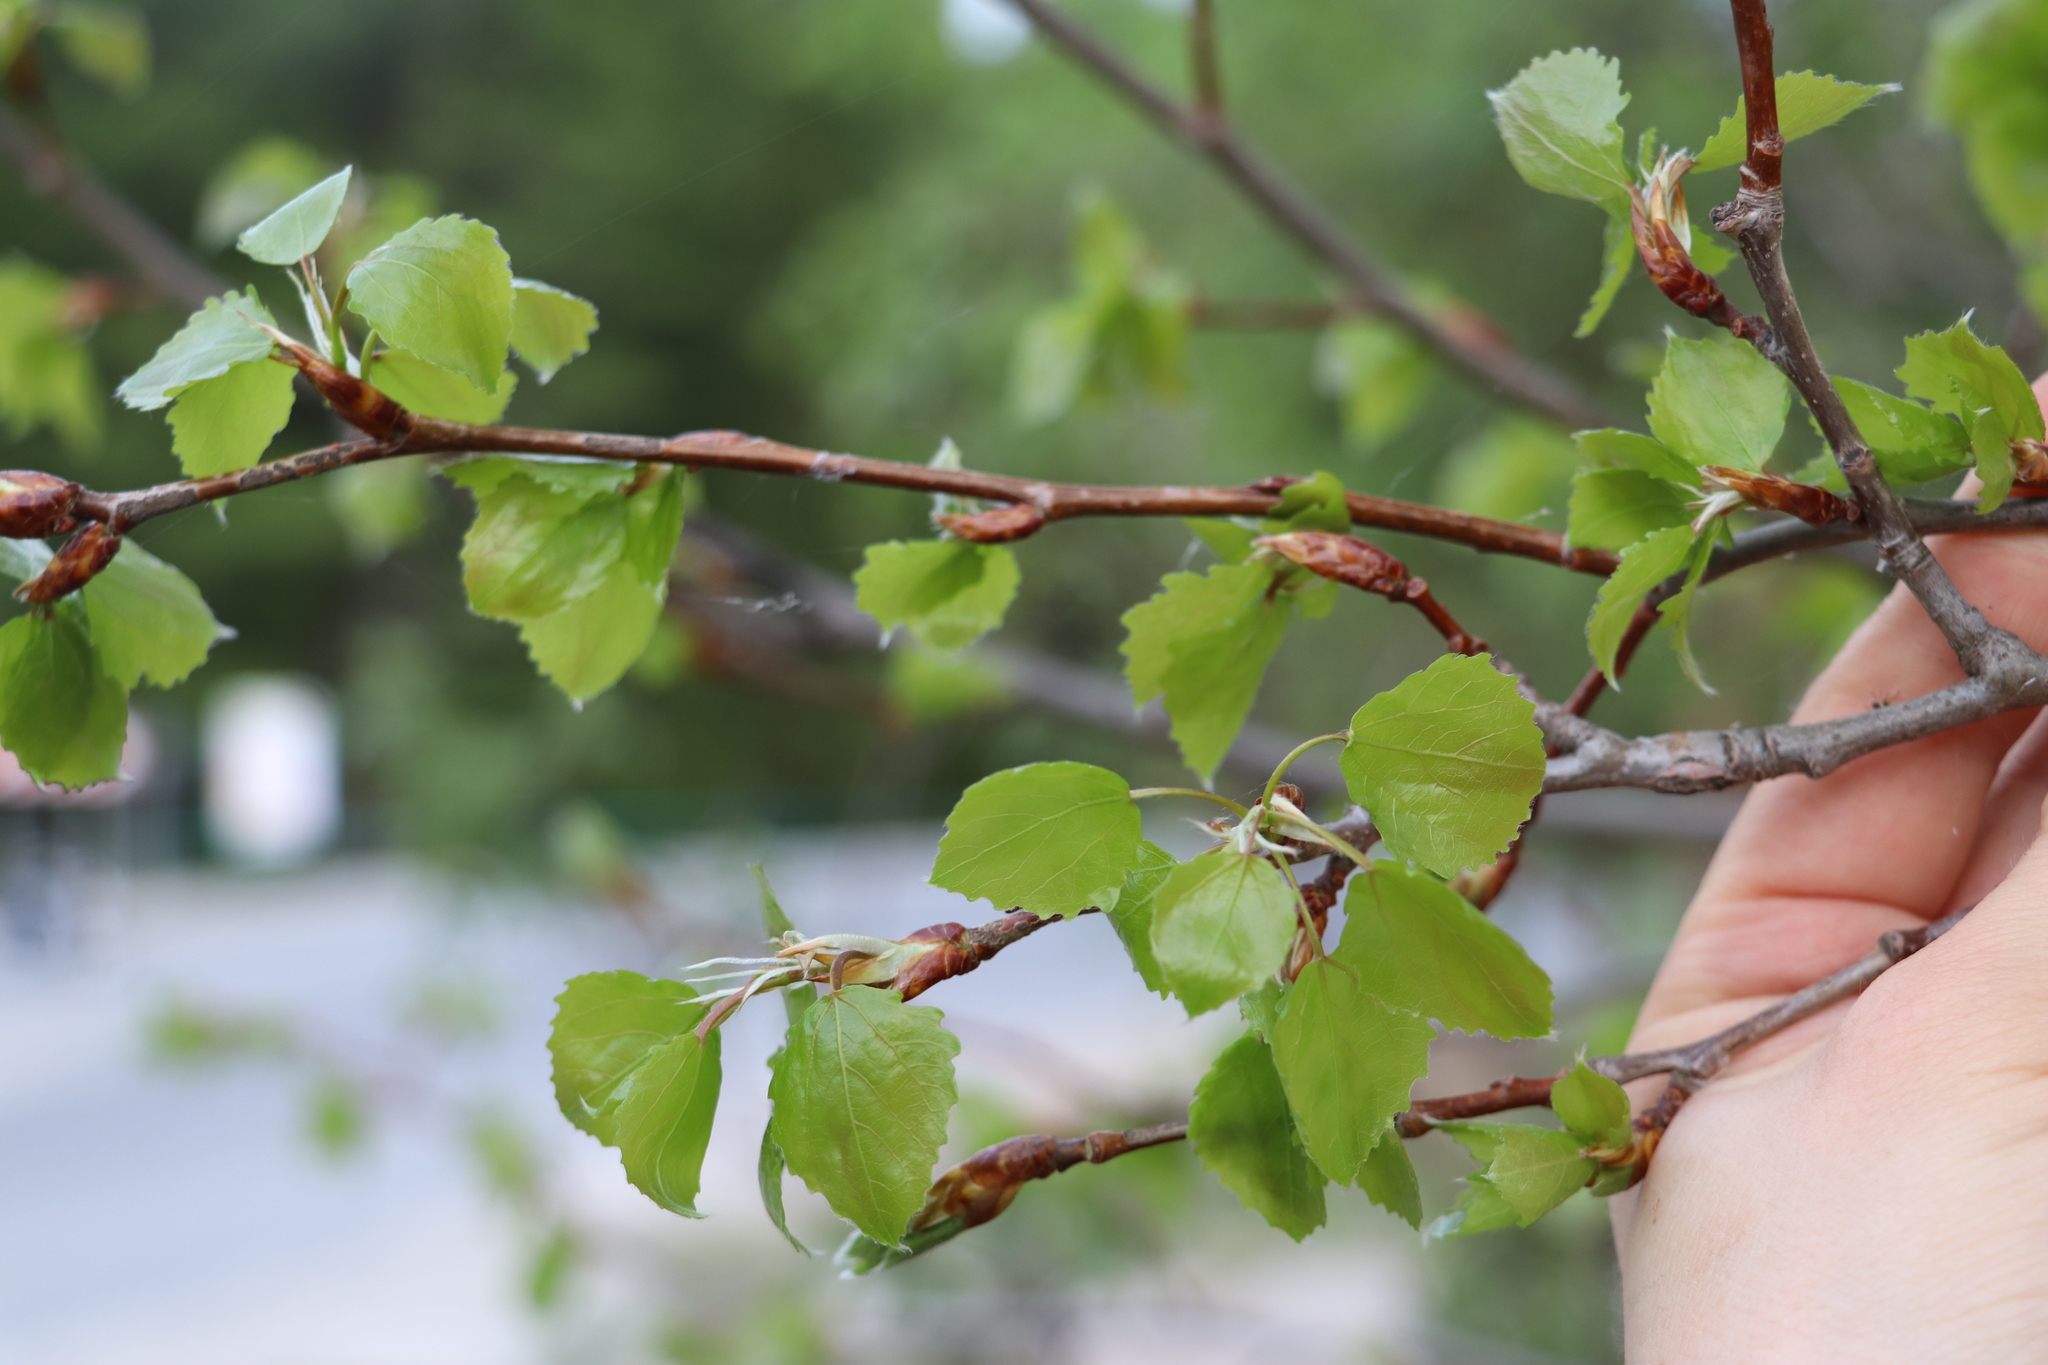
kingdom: Plantae
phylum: Tracheophyta
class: Magnoliopsida
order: Malpighiales
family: Salicaceae
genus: Populus
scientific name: Populus tremula
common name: European aspen
